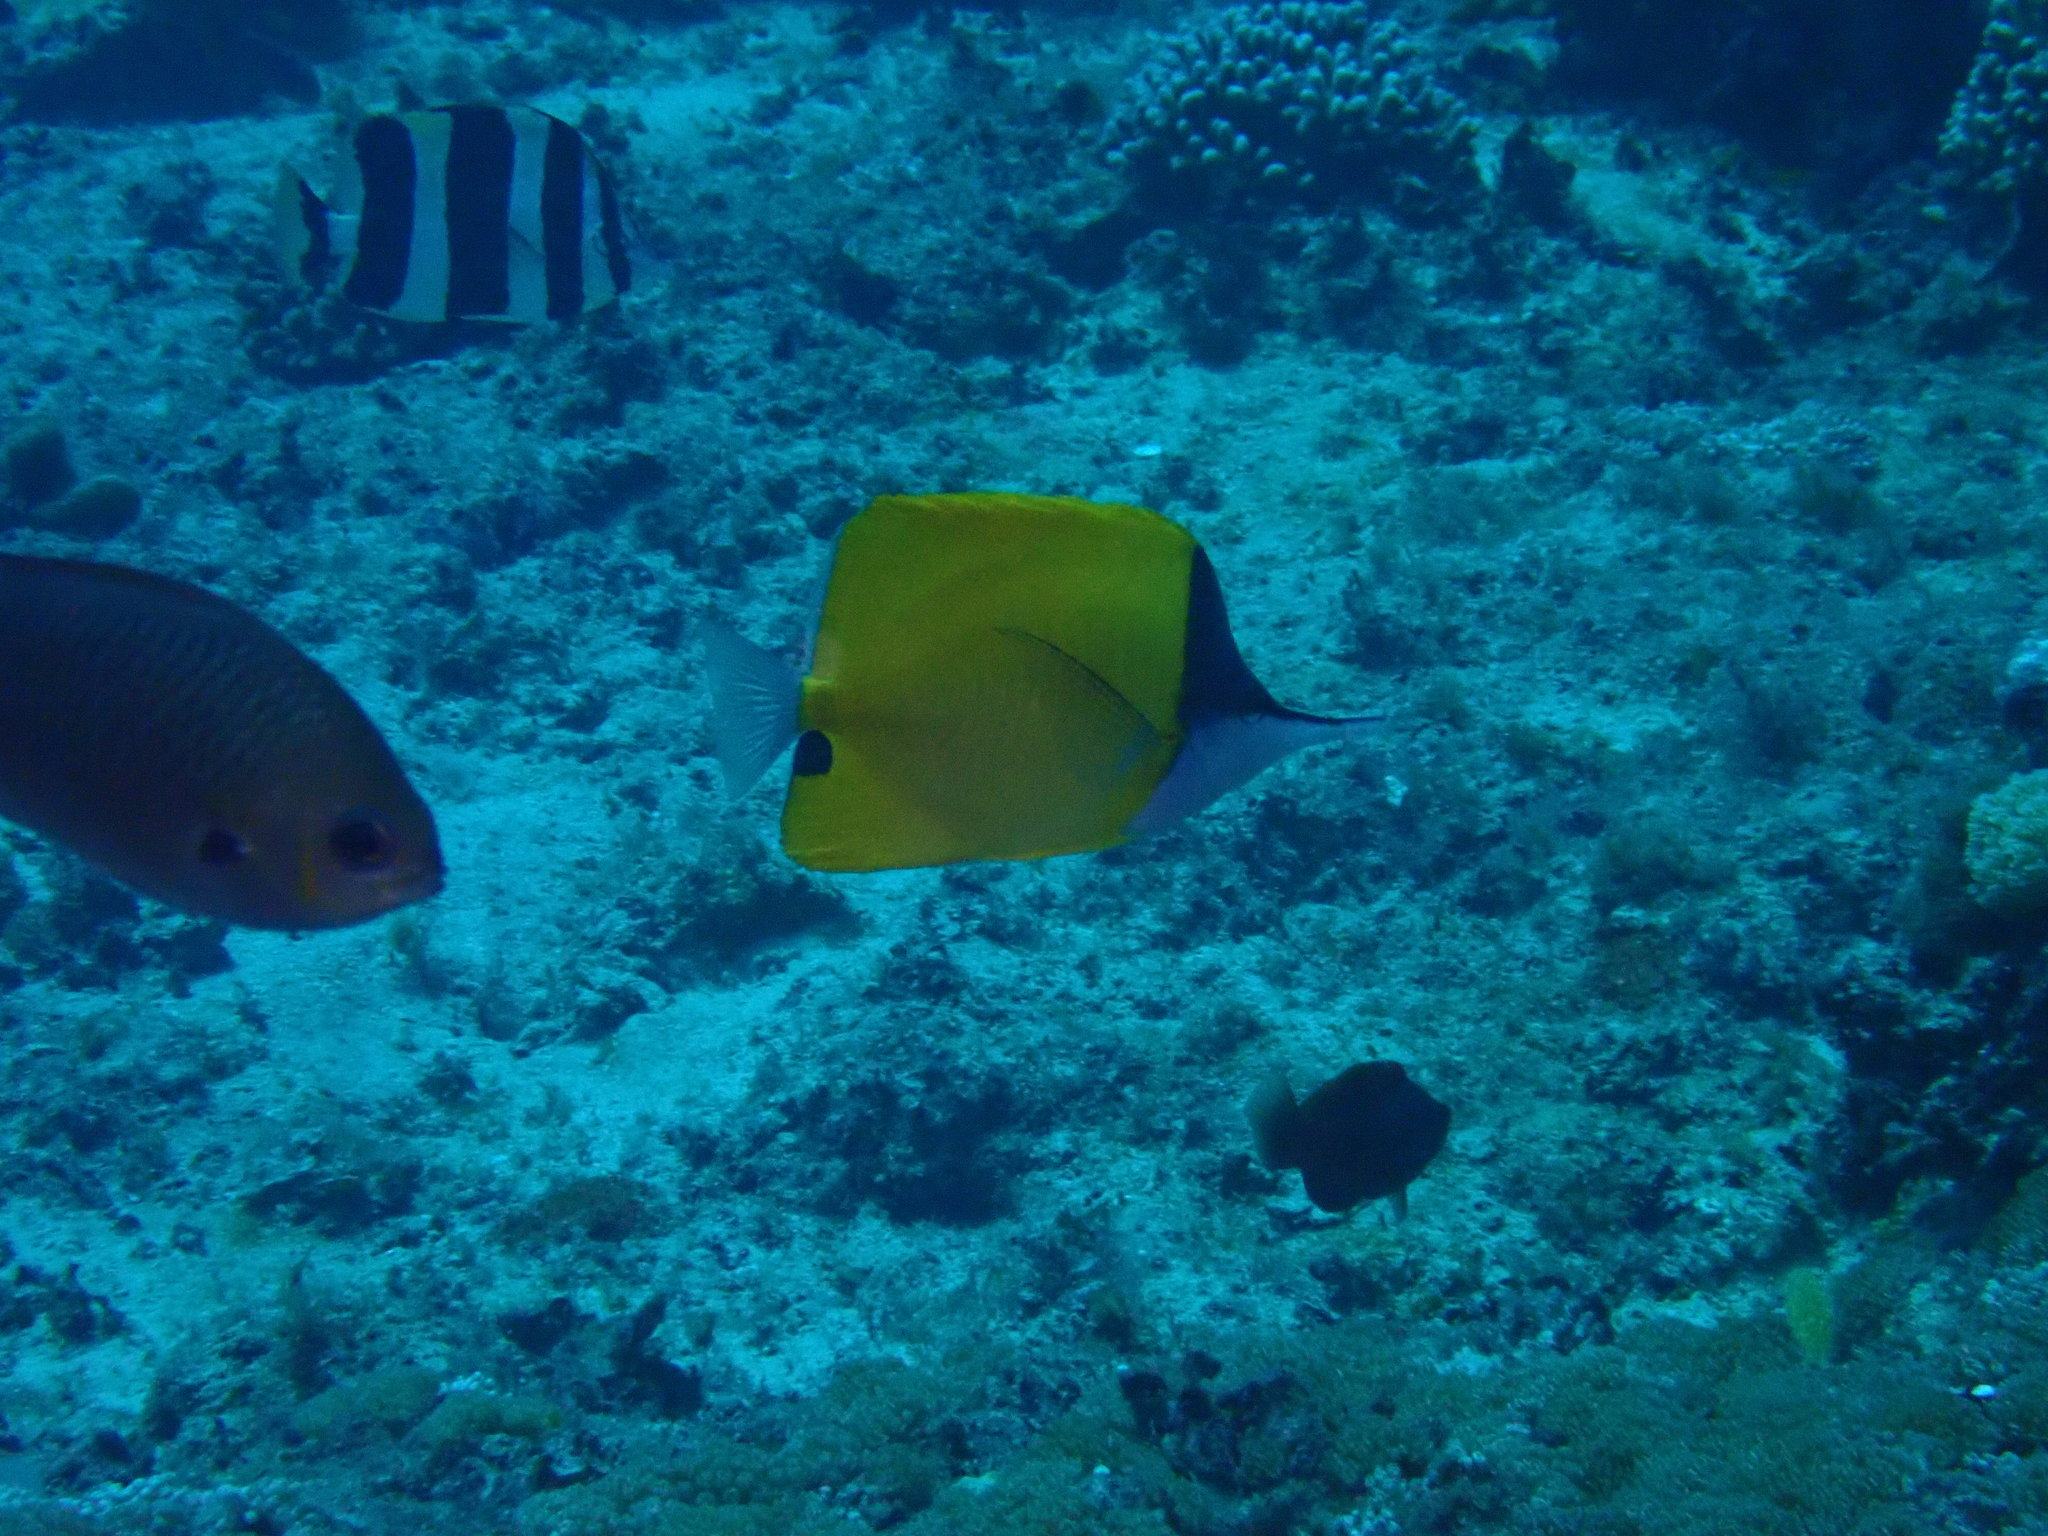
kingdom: Animalia
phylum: Chordata
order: Perciformes
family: Chaetodontidae
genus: Forcipiger
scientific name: Forcipiger flavissimus
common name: Forcepsfish
